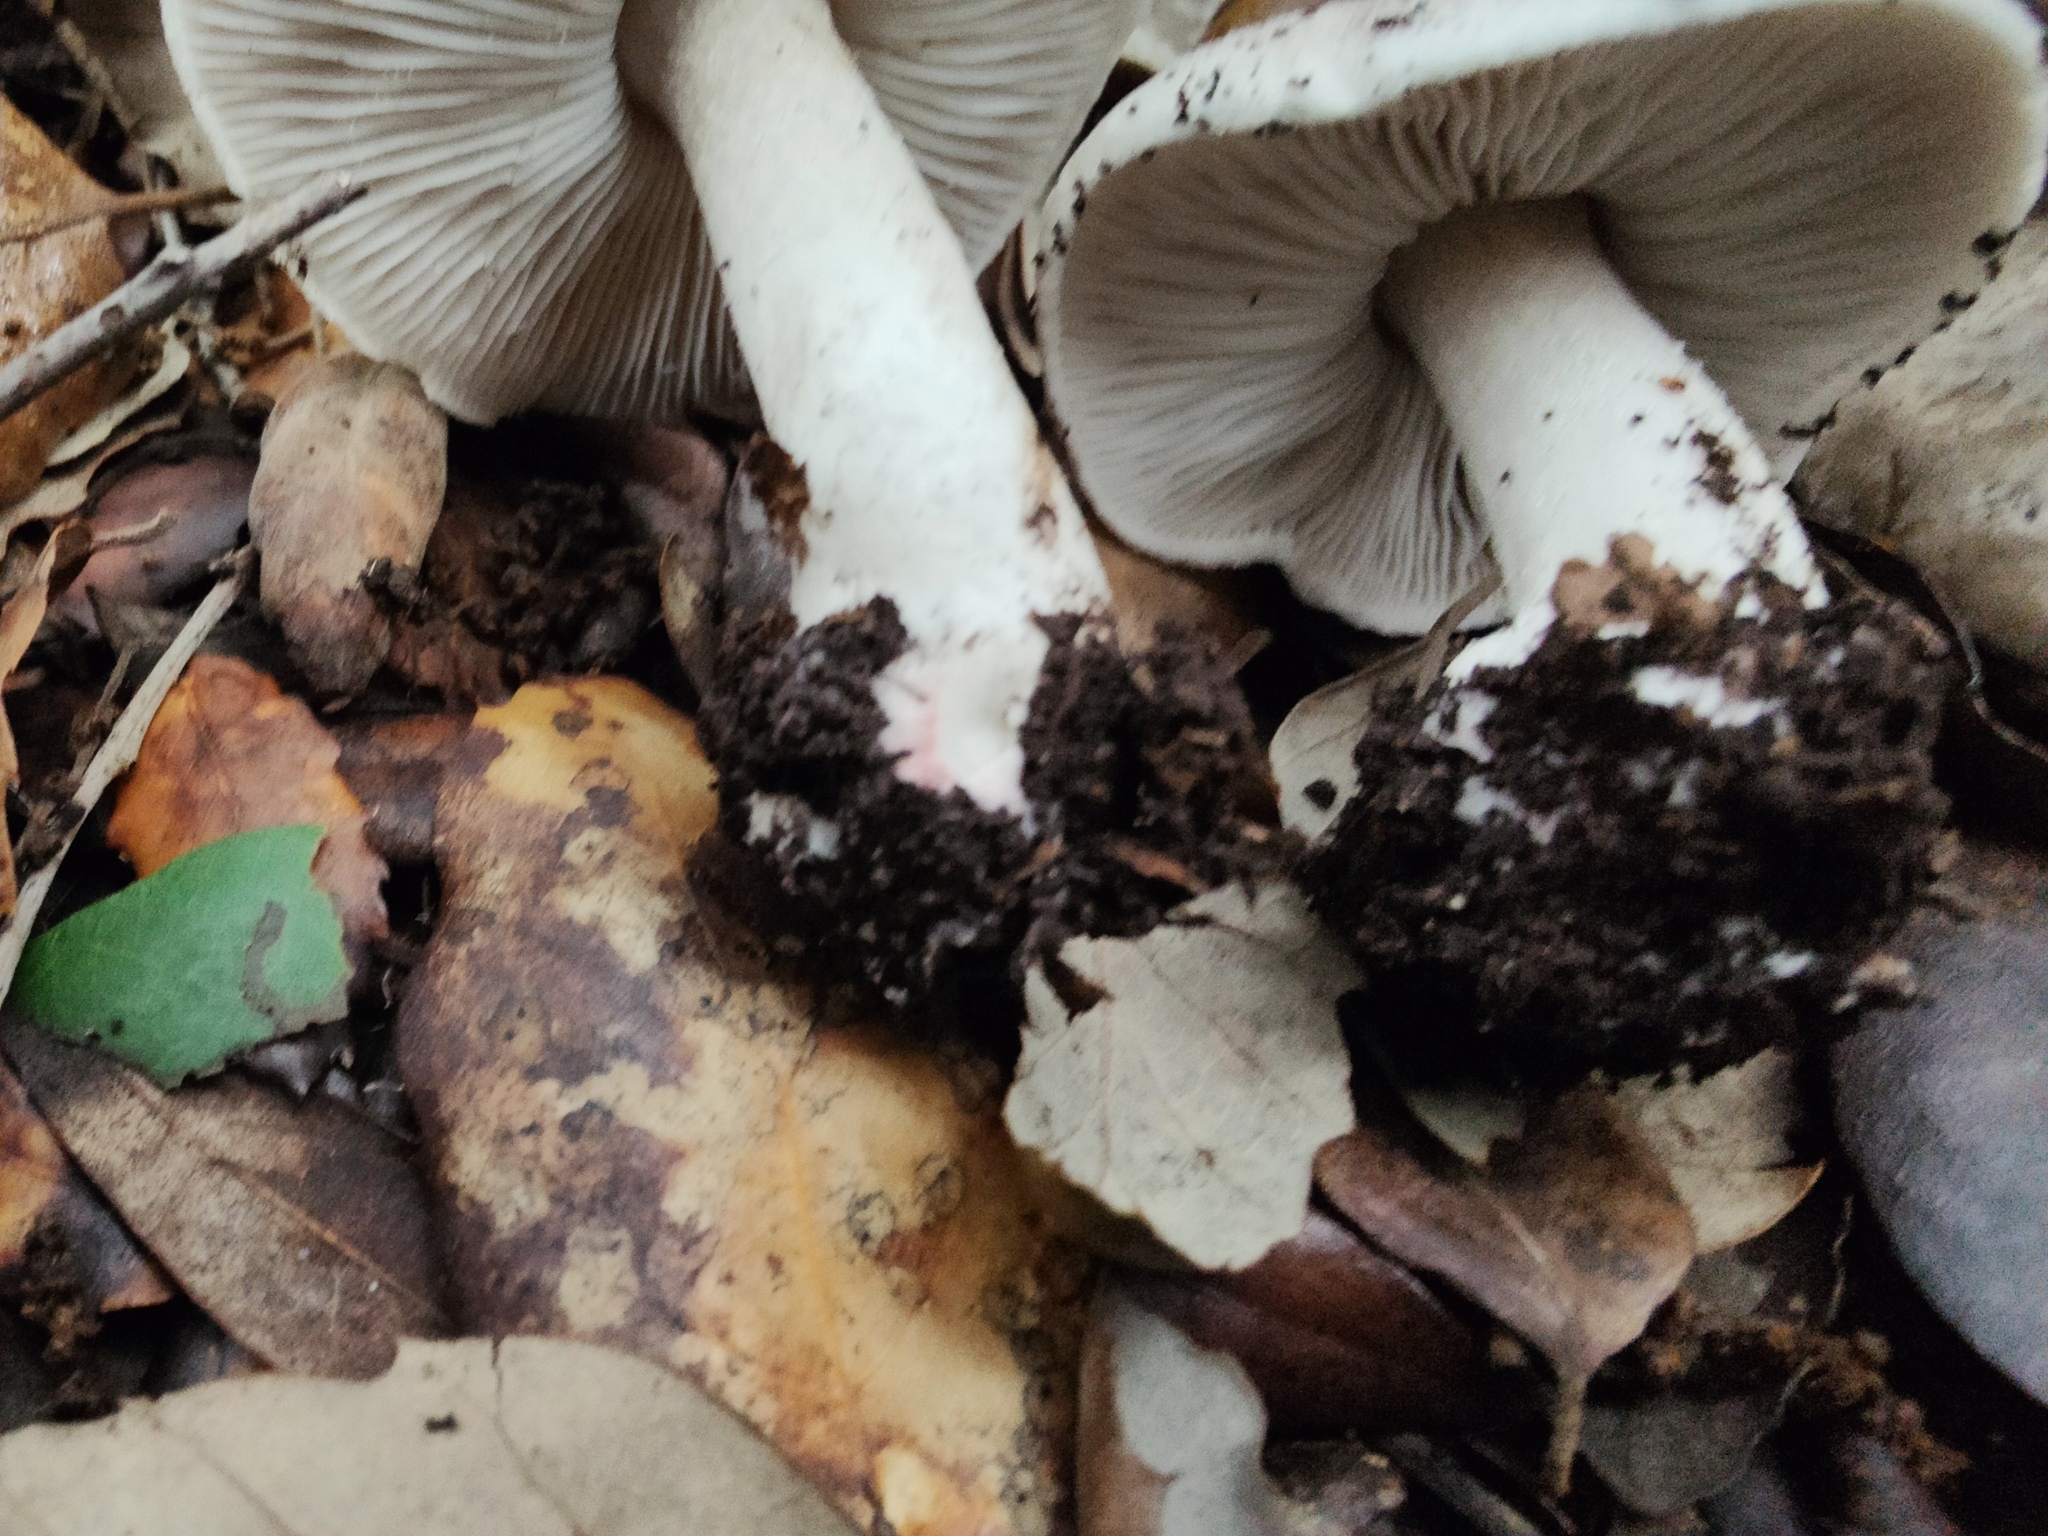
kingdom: Fungi
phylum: Basidiomycota
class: Agaricomycetes
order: Agaricales
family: Tricholomataceae
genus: Tricholoma
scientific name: Tricholoma basirubens
